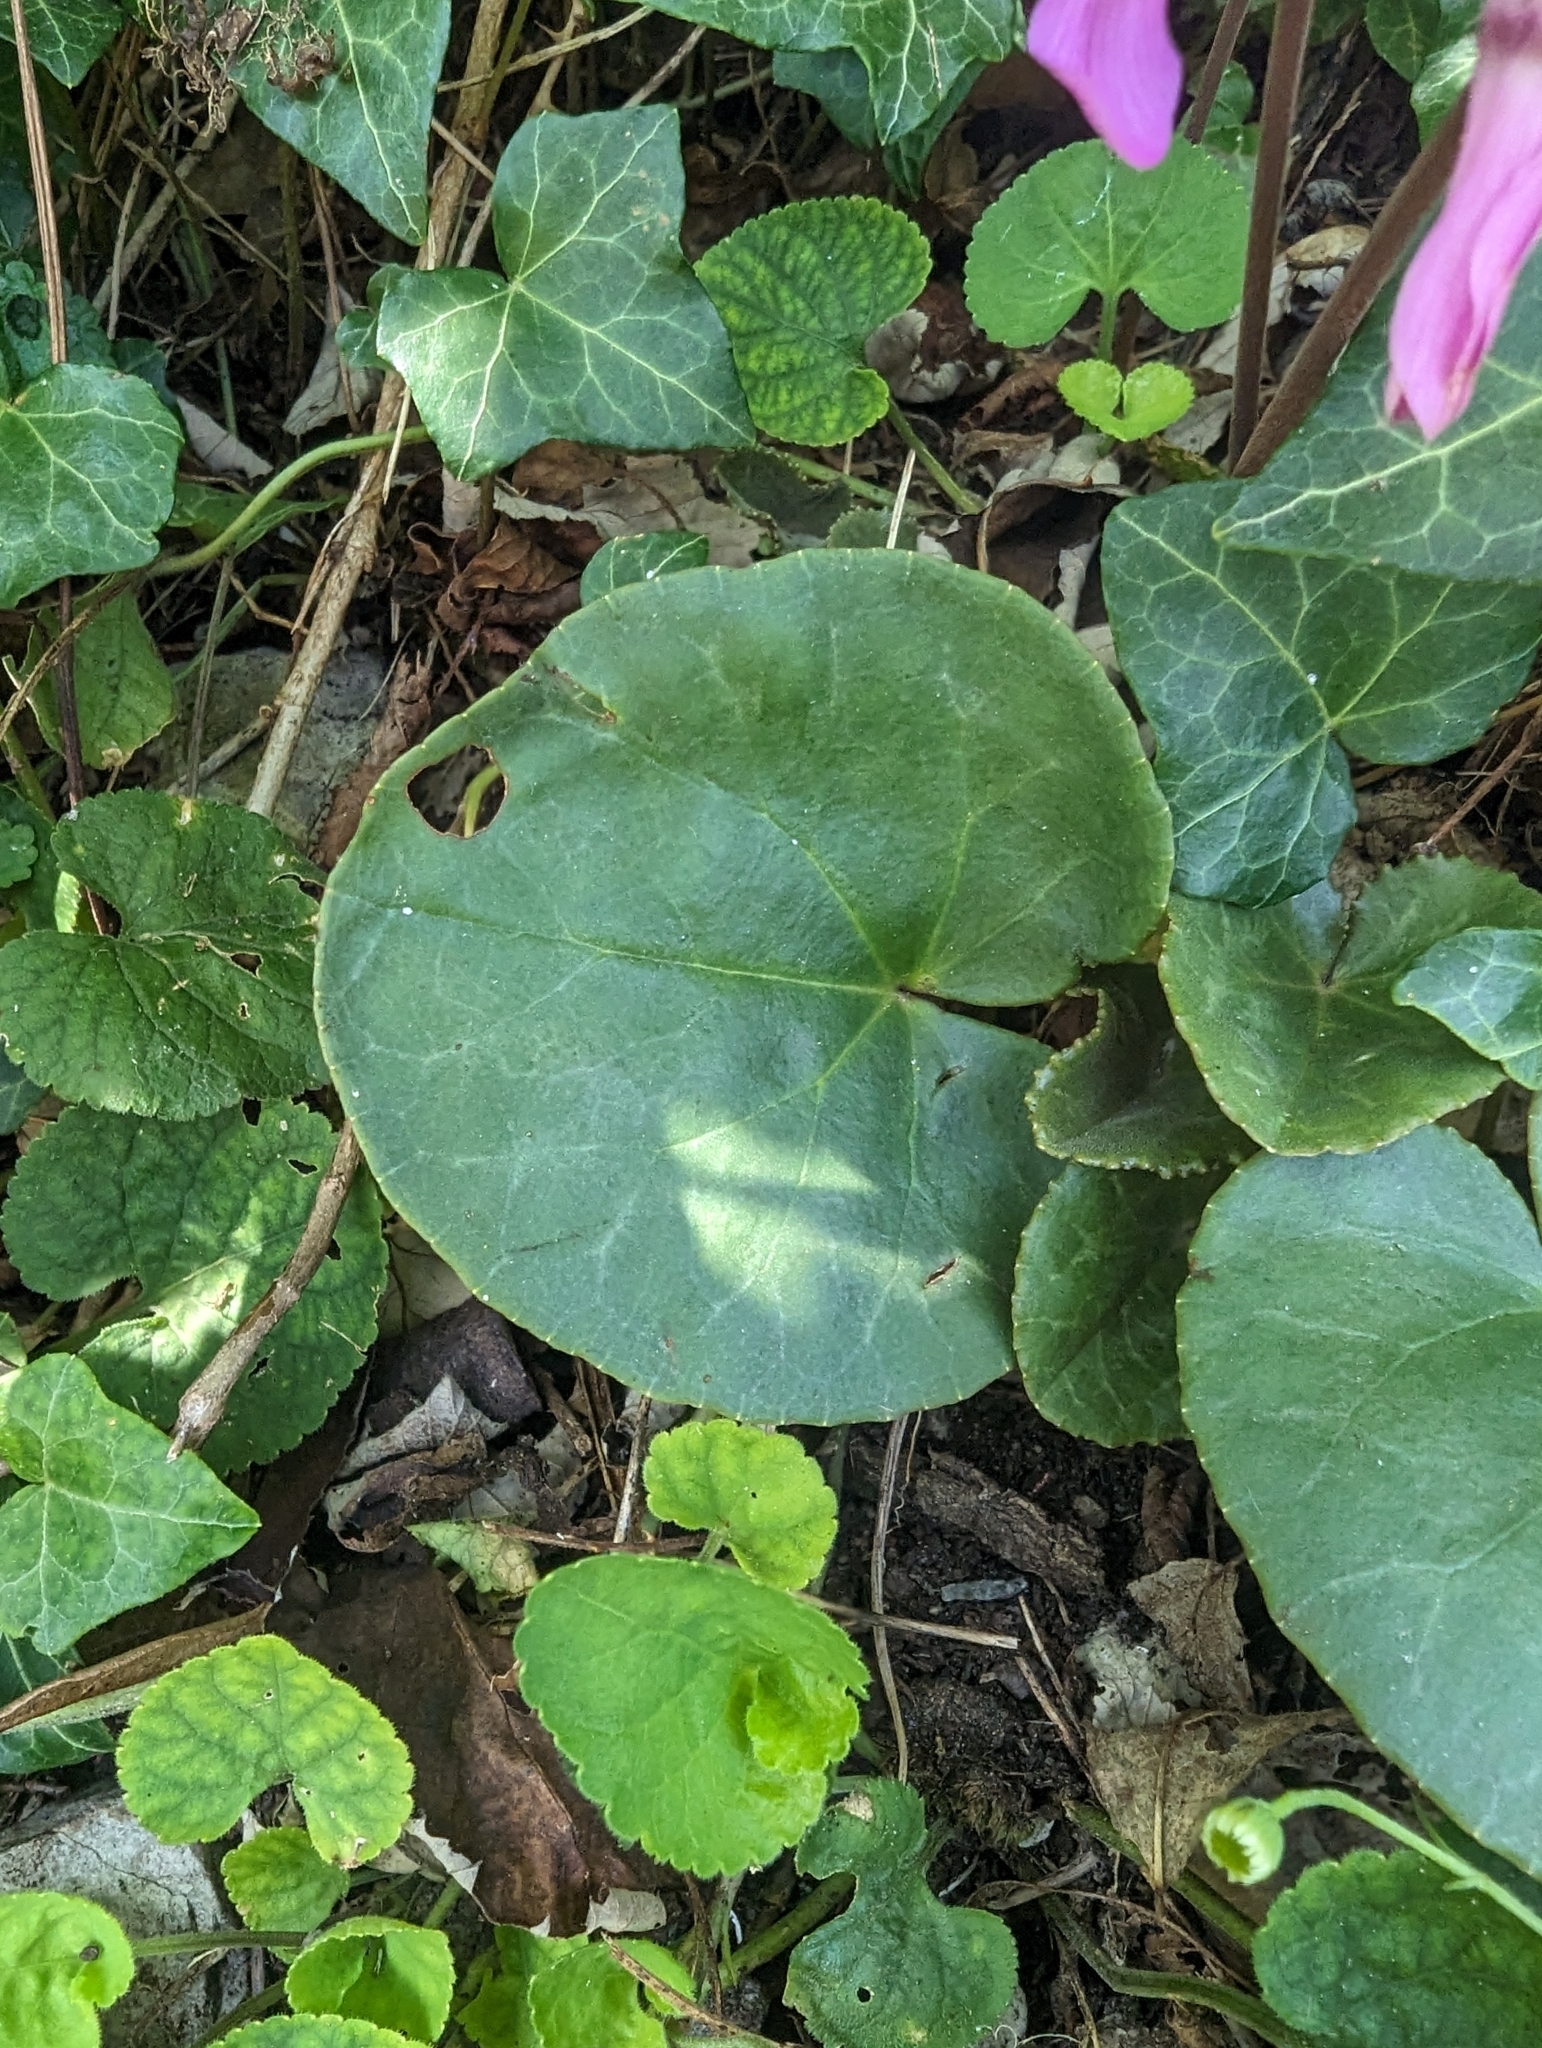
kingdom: Plantae
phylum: Tracheophyta
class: Magnoliopsida
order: Ericales
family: Primulaceae
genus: Cyclamen
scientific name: Cyclamen purpurascens
